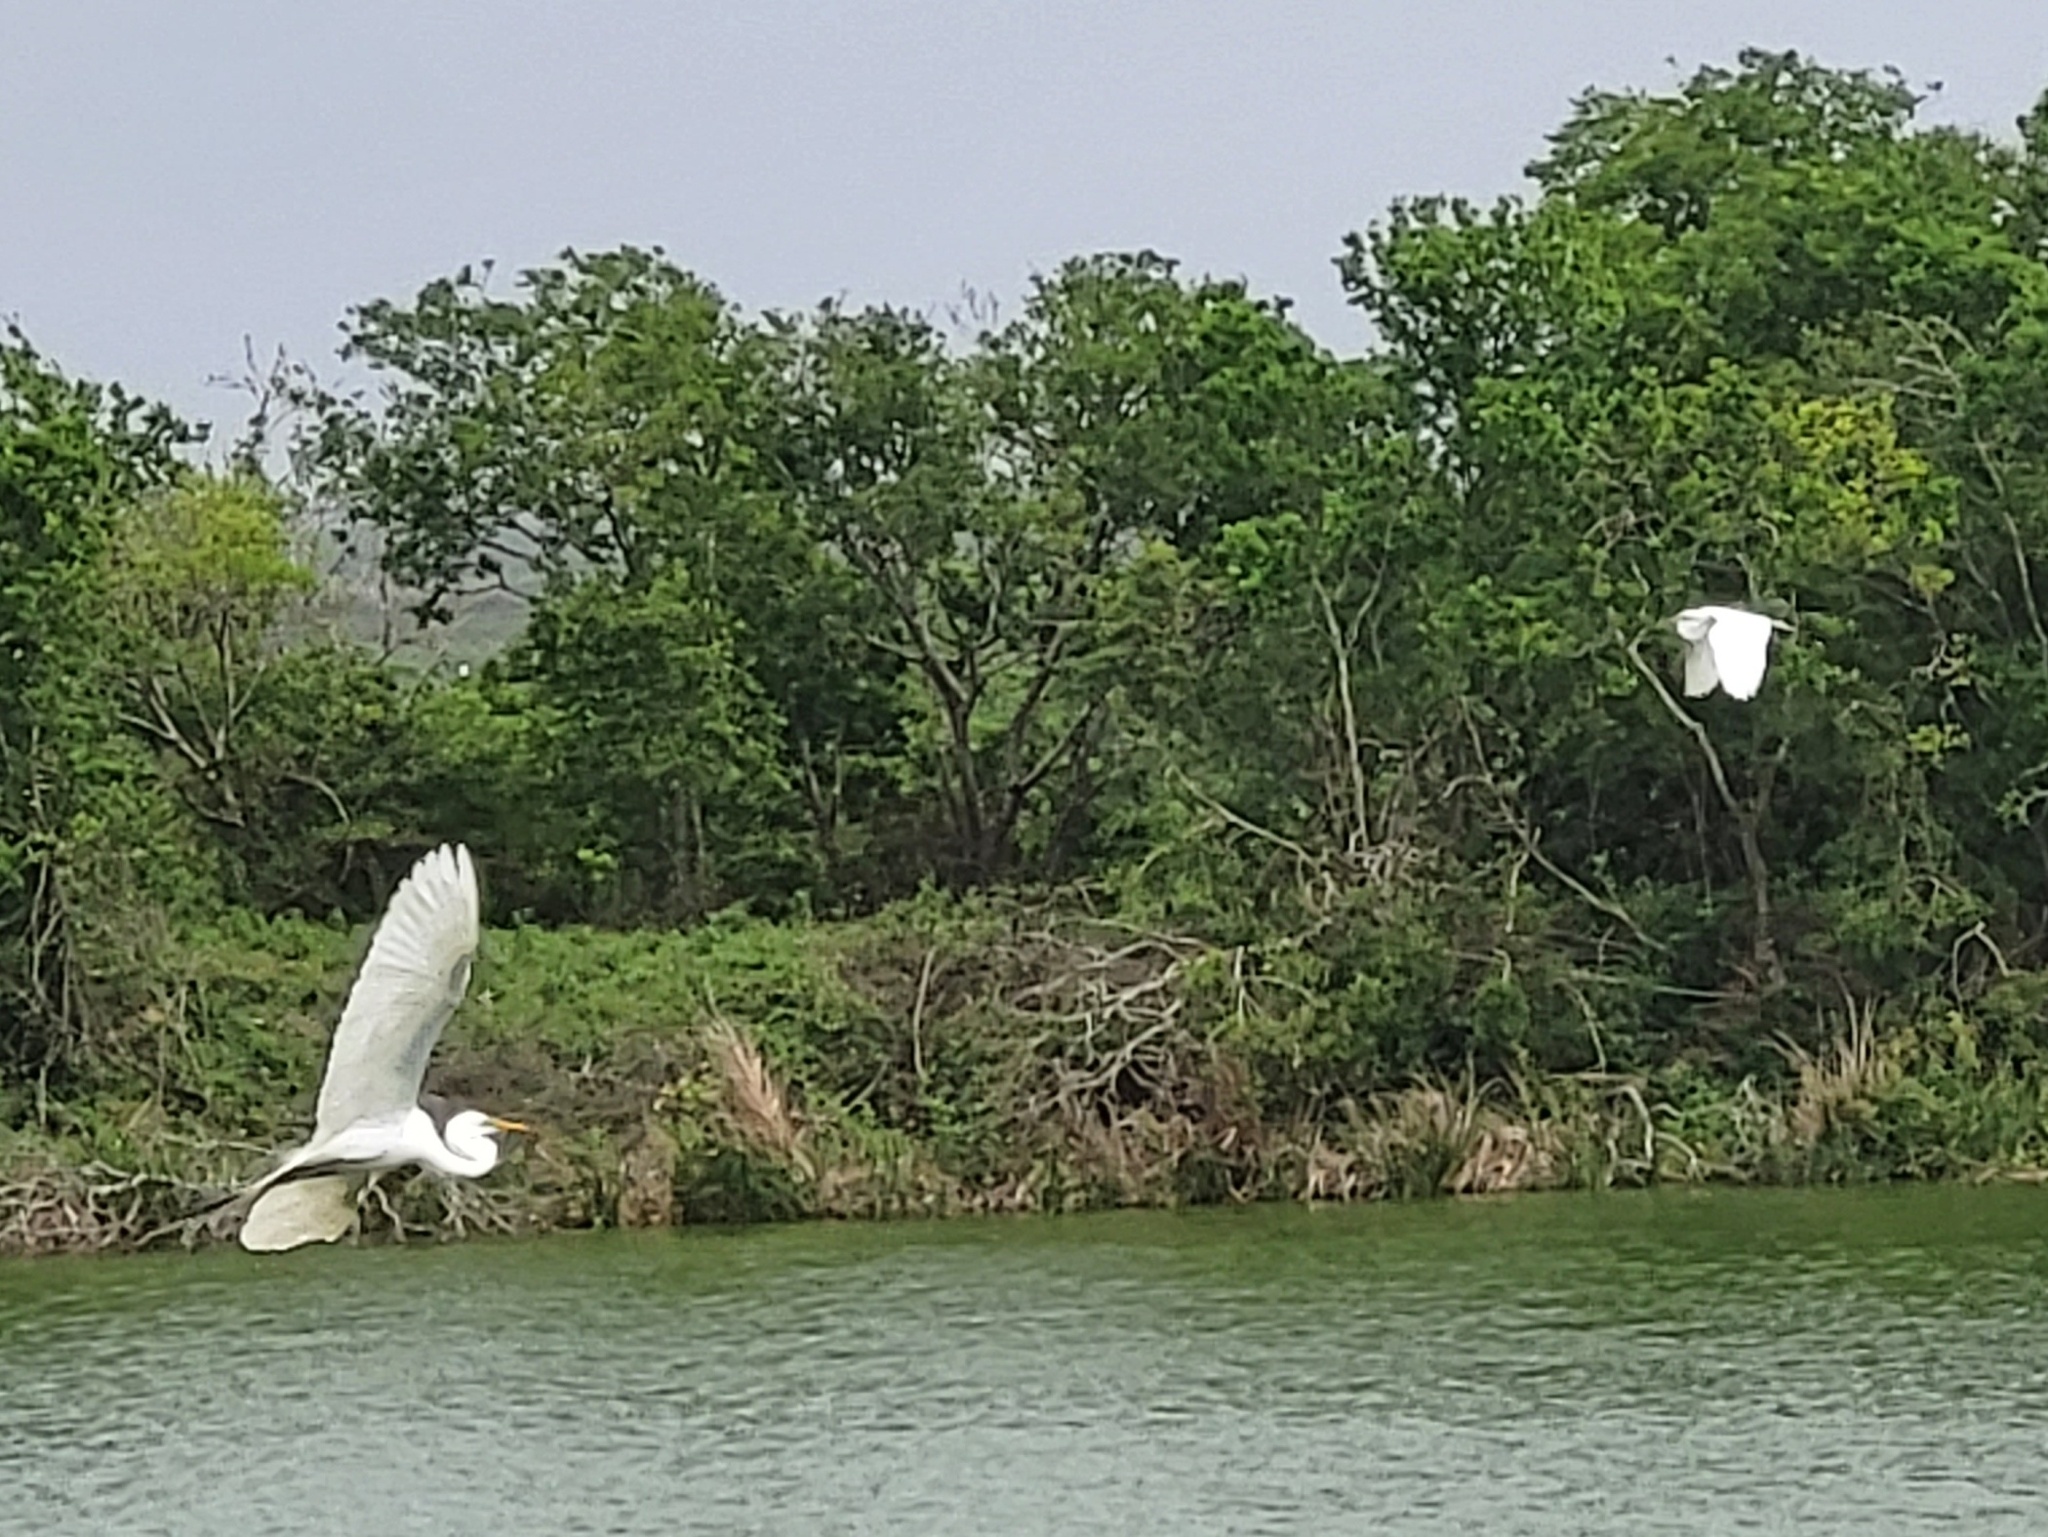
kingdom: Animalia
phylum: Chordata
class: Aves
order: Pelecaniformes
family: Ardeidae
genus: Ardea
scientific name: Ardea alba
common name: Great egret
